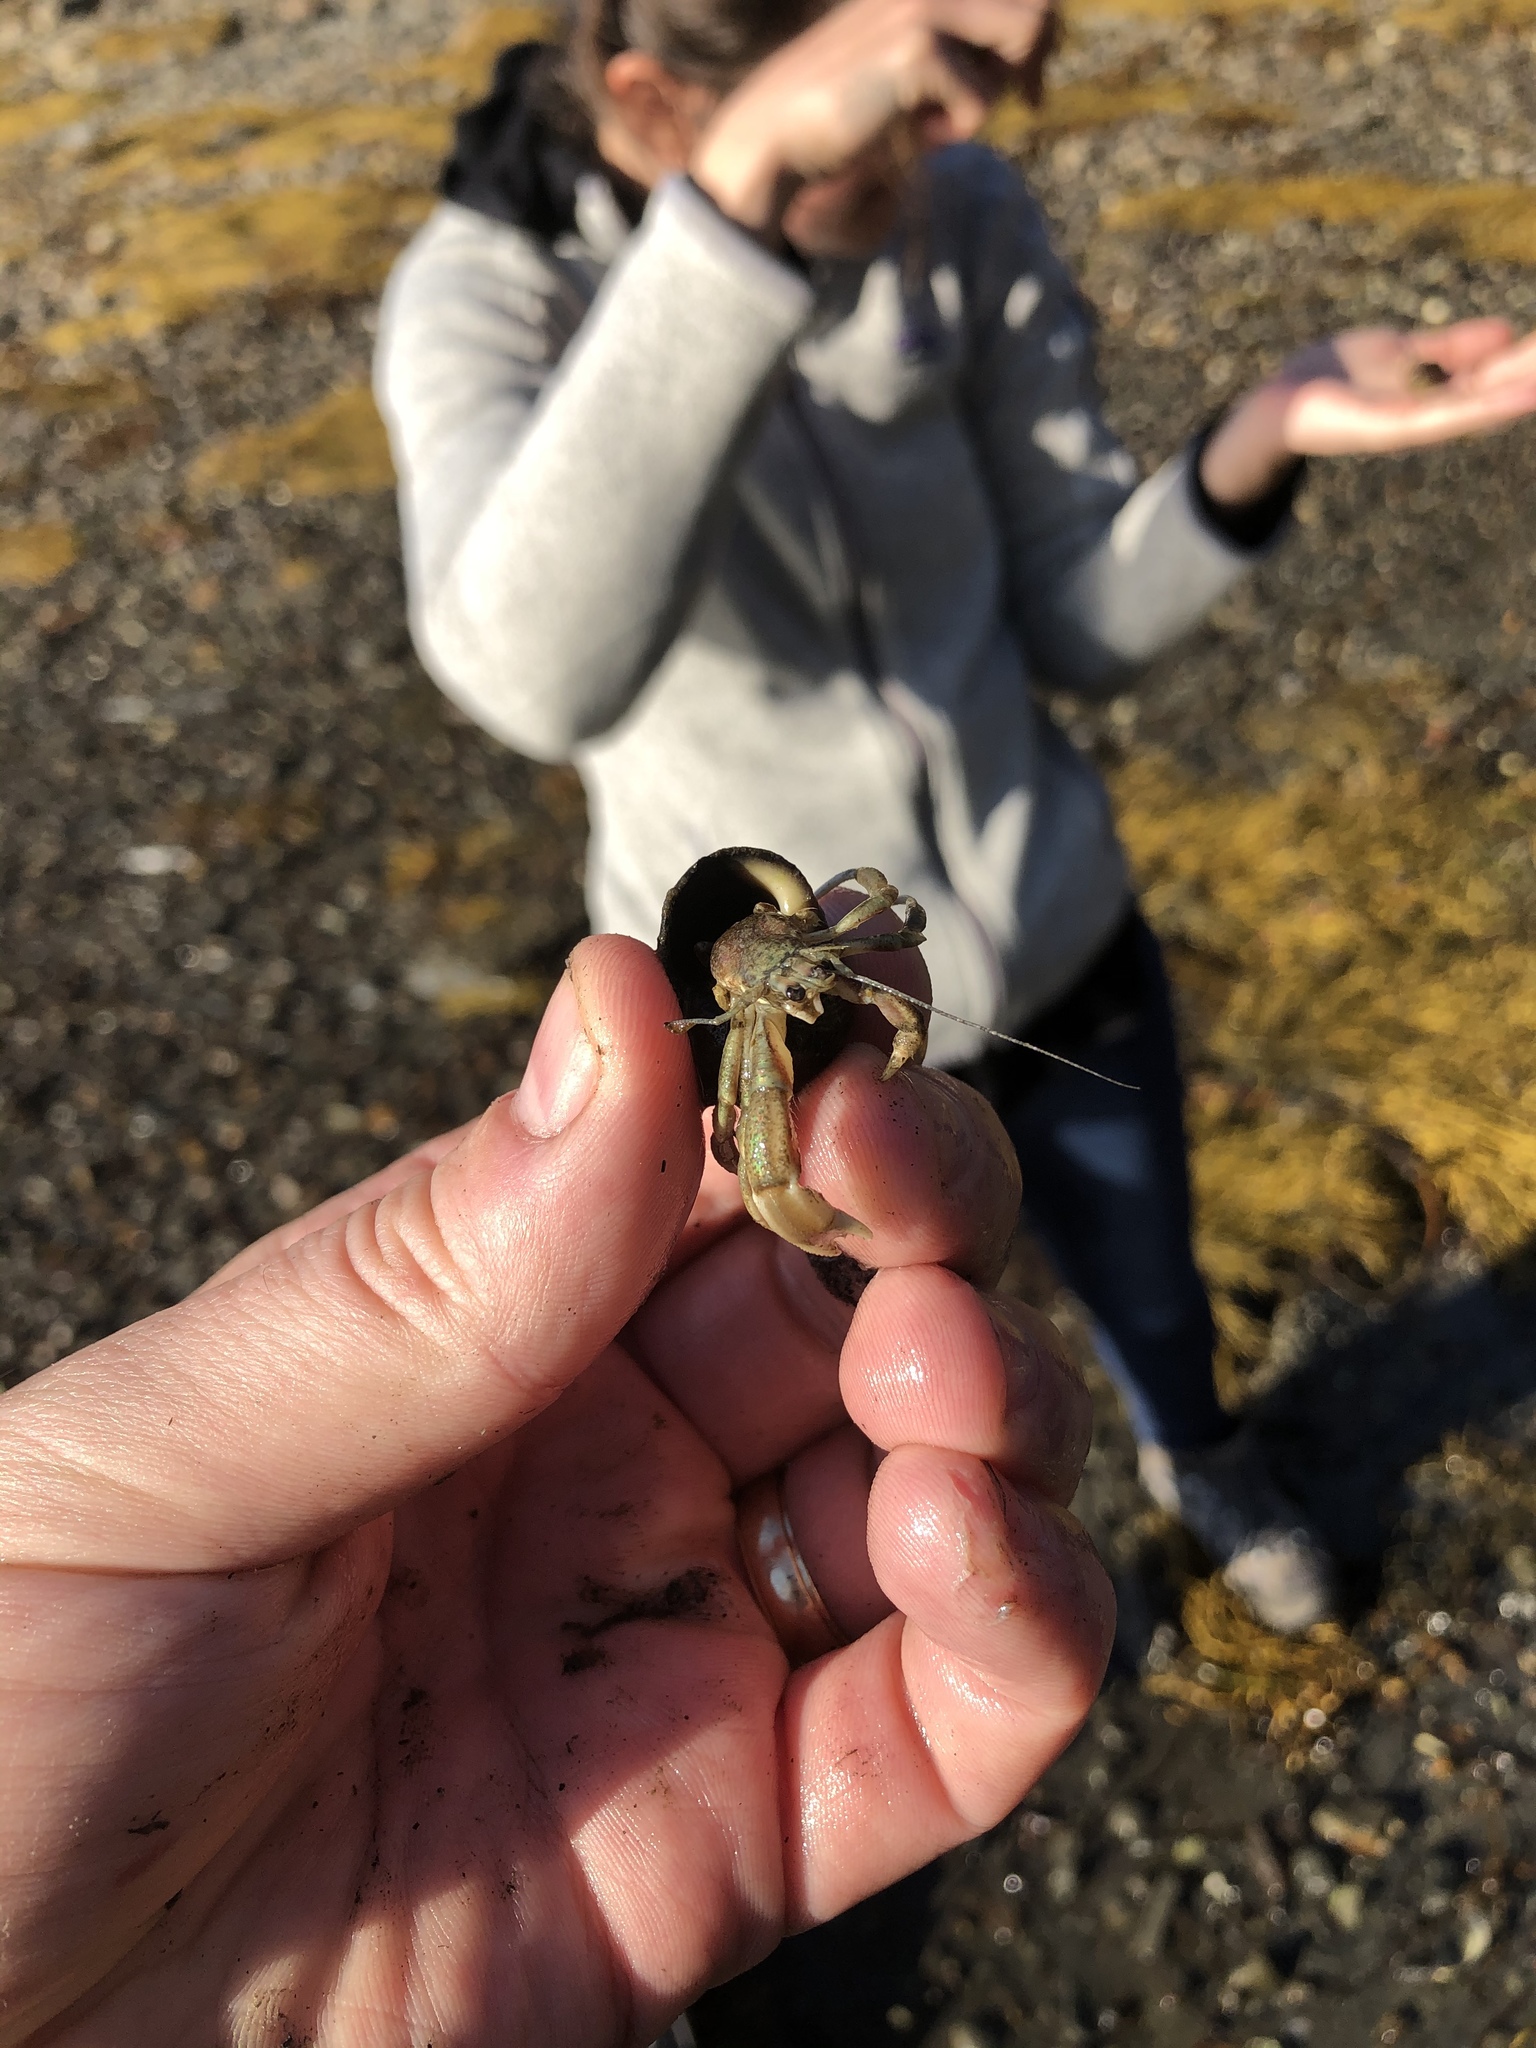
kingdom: Animalia
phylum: Arthropoda
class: Malacostraca
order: Decapoda
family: Paguridae
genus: Pagurus
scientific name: Pagurus longicarpus
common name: Long-armed hermit crab
